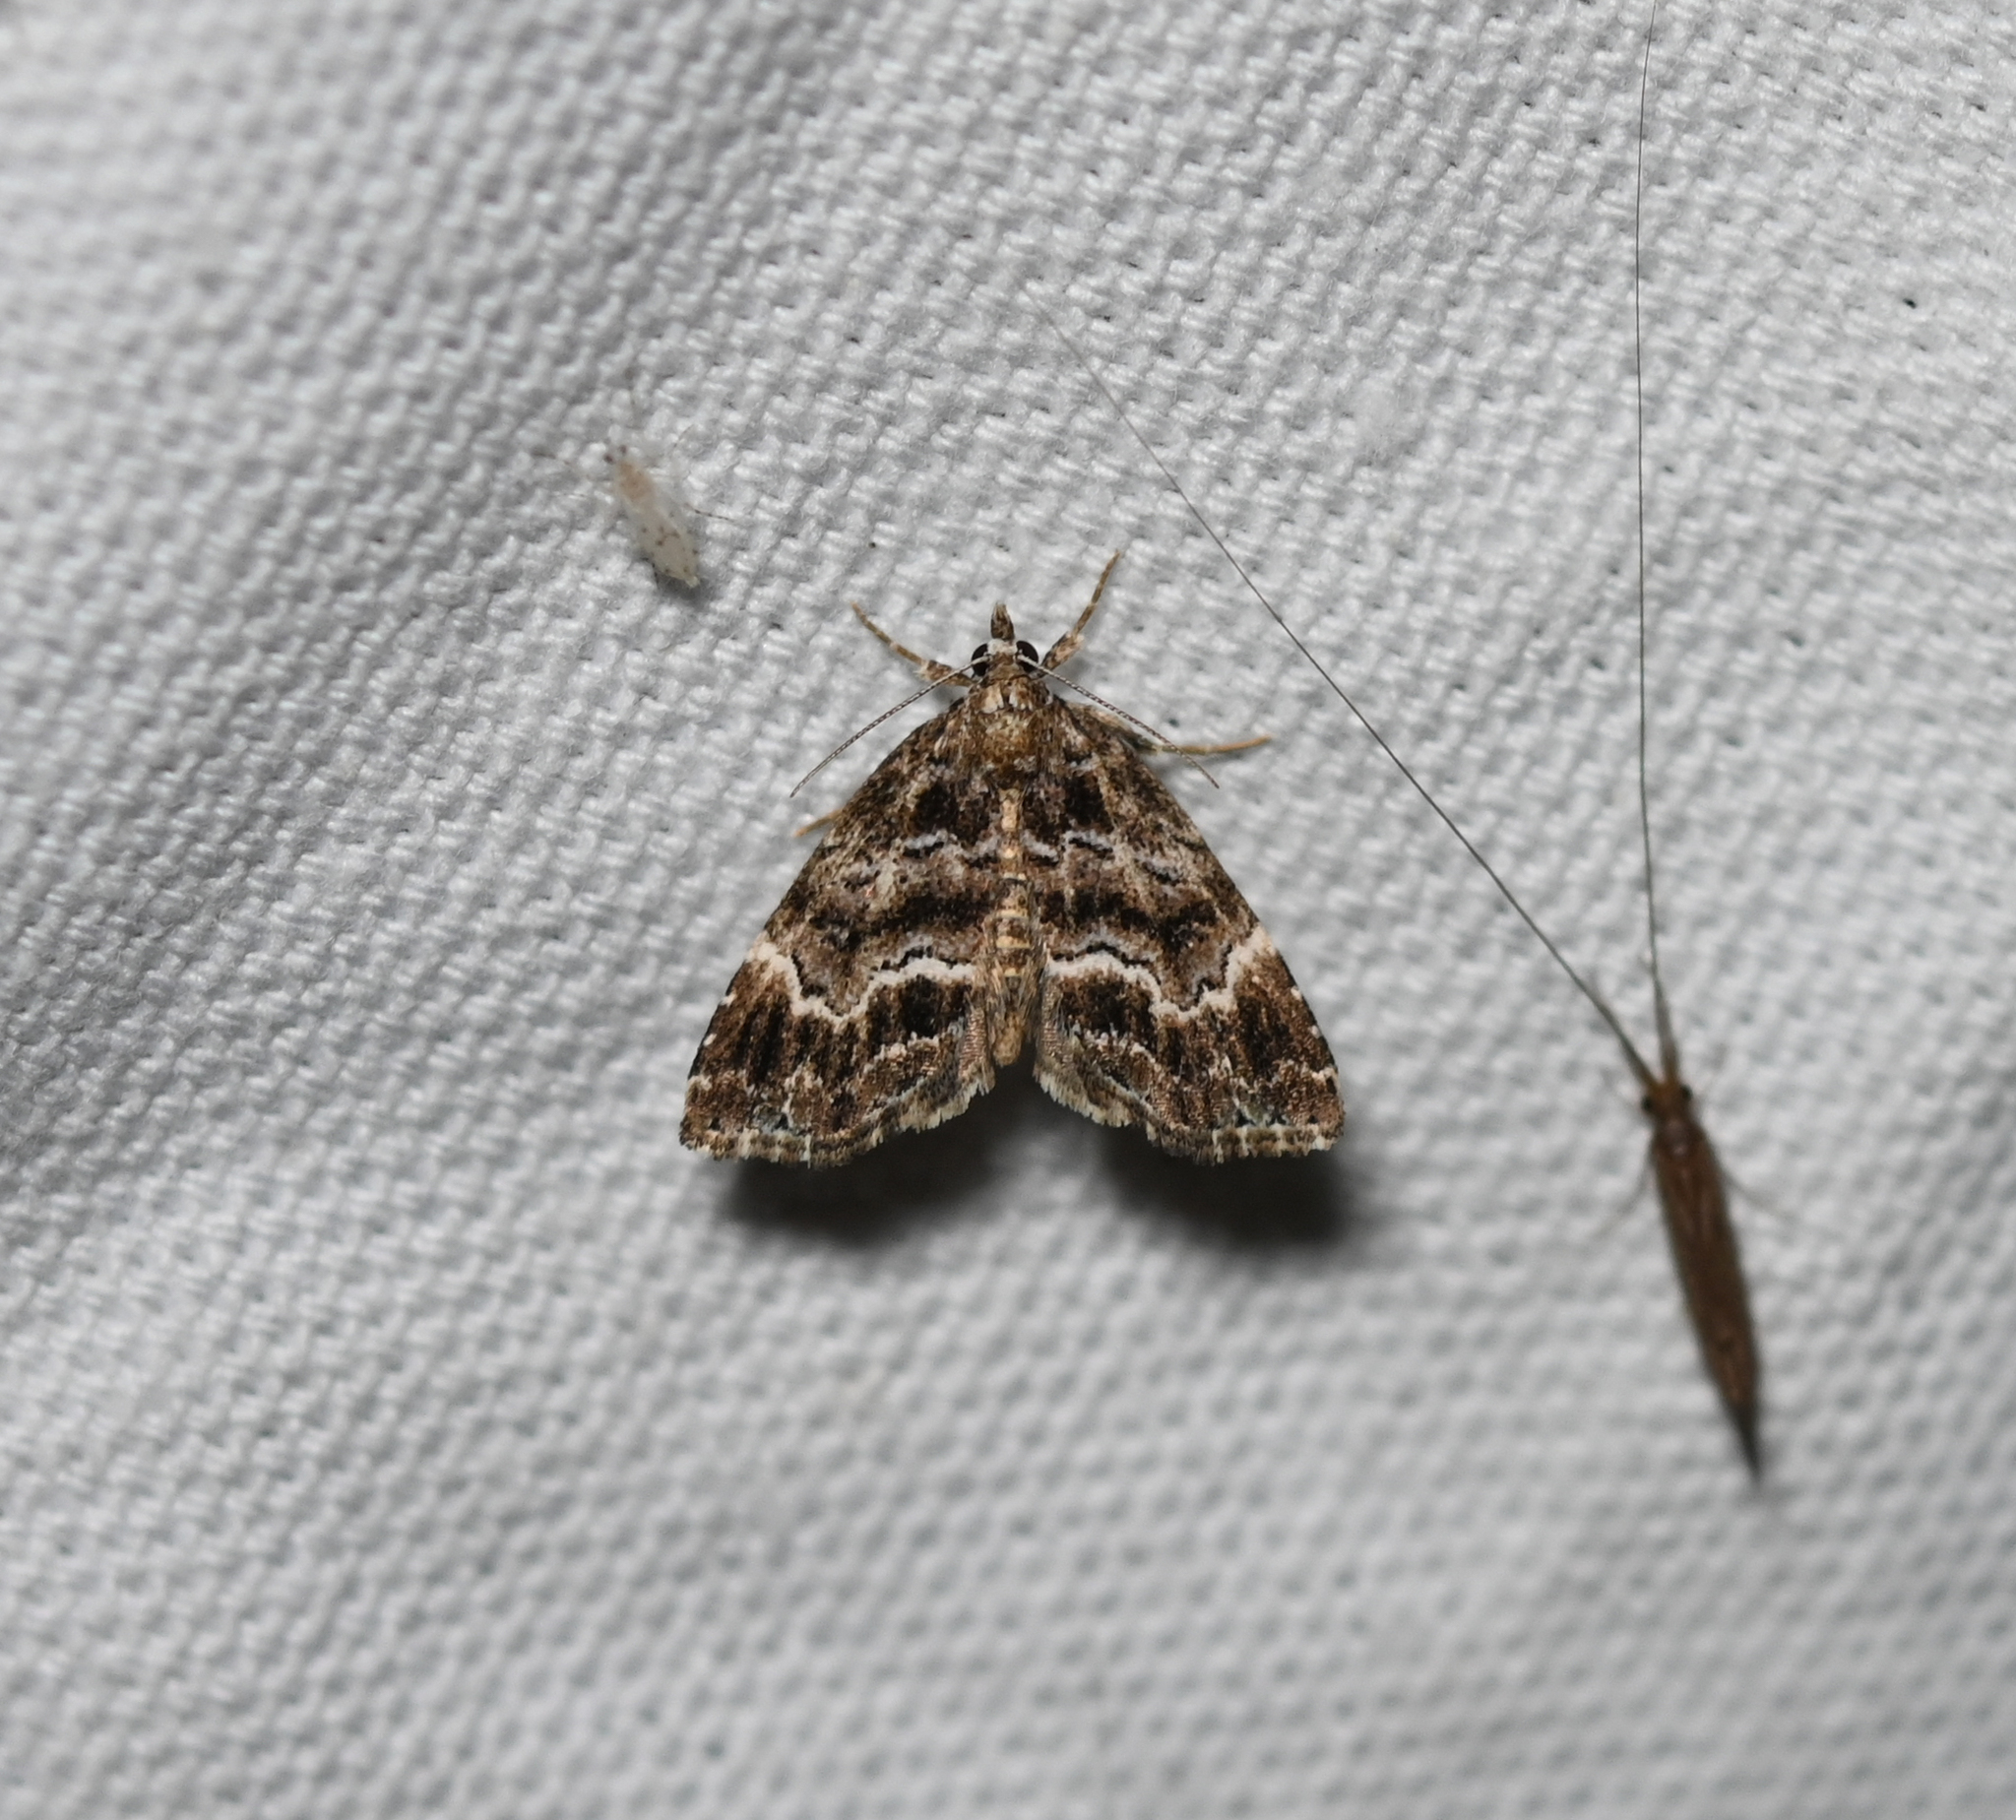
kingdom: Animalia
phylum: Arthropoda
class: Insecta
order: Lepidoptera
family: Erebidae
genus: Cutina
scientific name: Cutina arcuata
